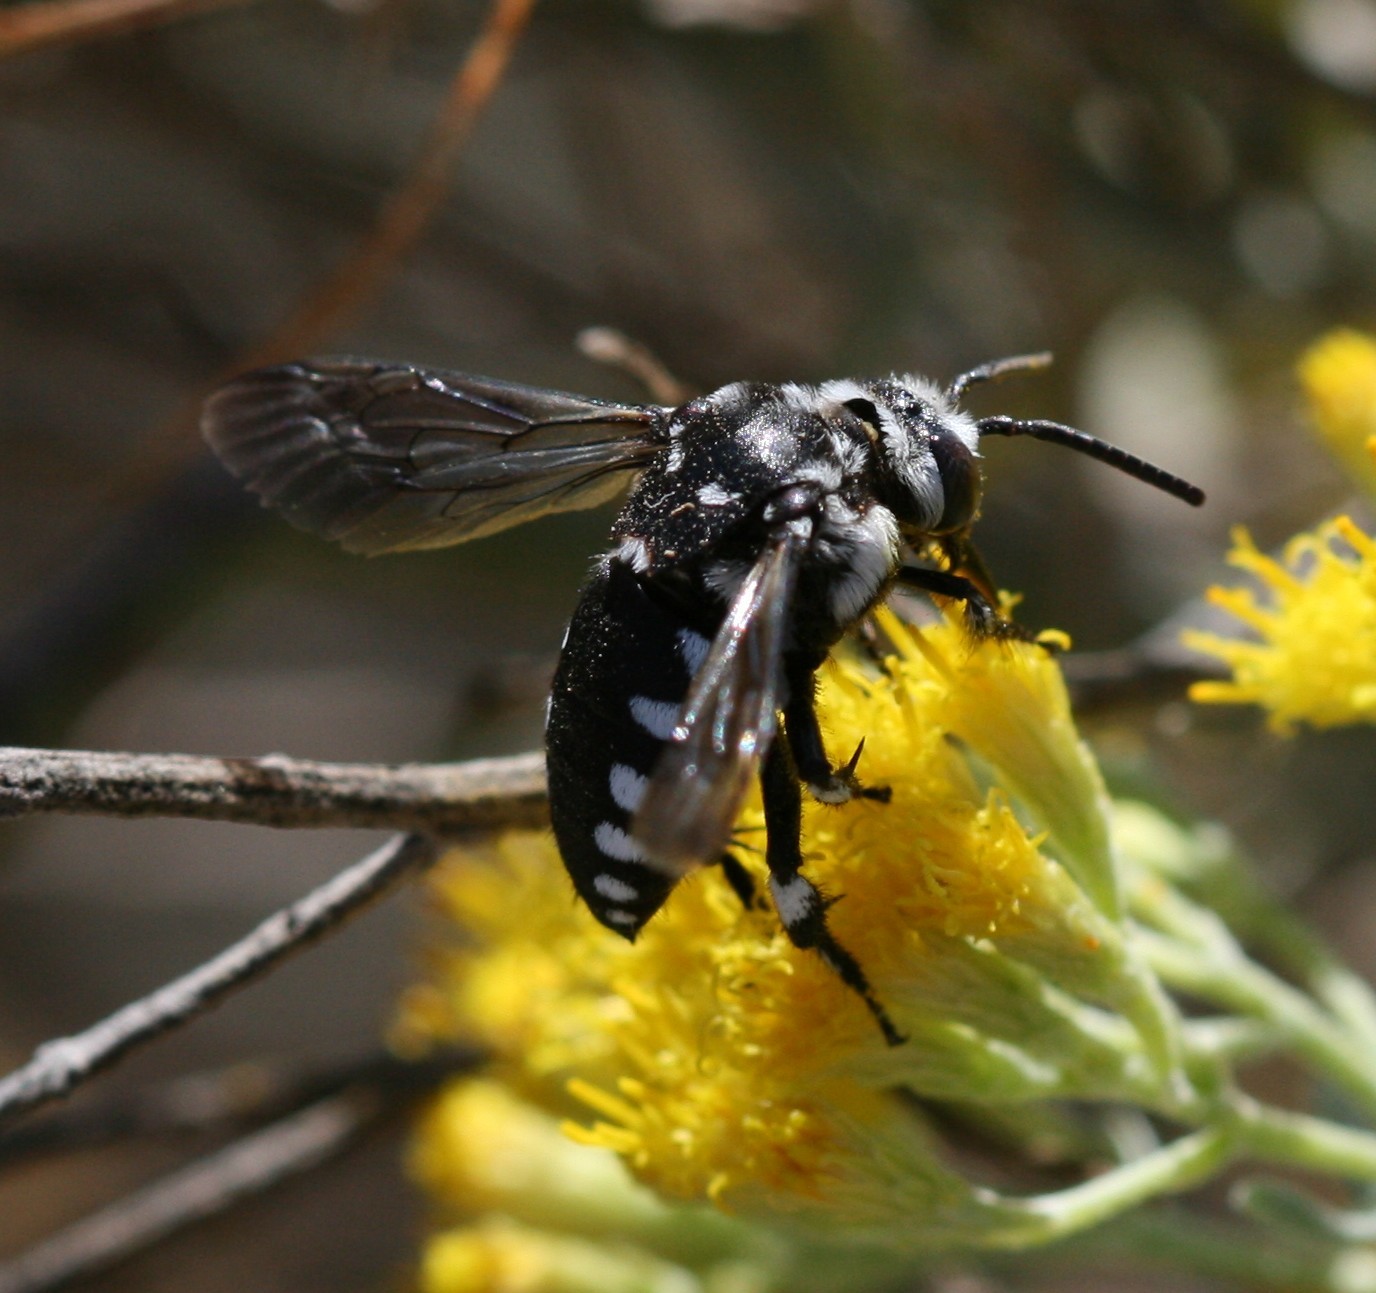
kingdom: Animalia
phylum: Arthropoda
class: Insecta
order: Hymenoptera
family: Apidae
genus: Thyreus
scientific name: Thyreus histrionicus
